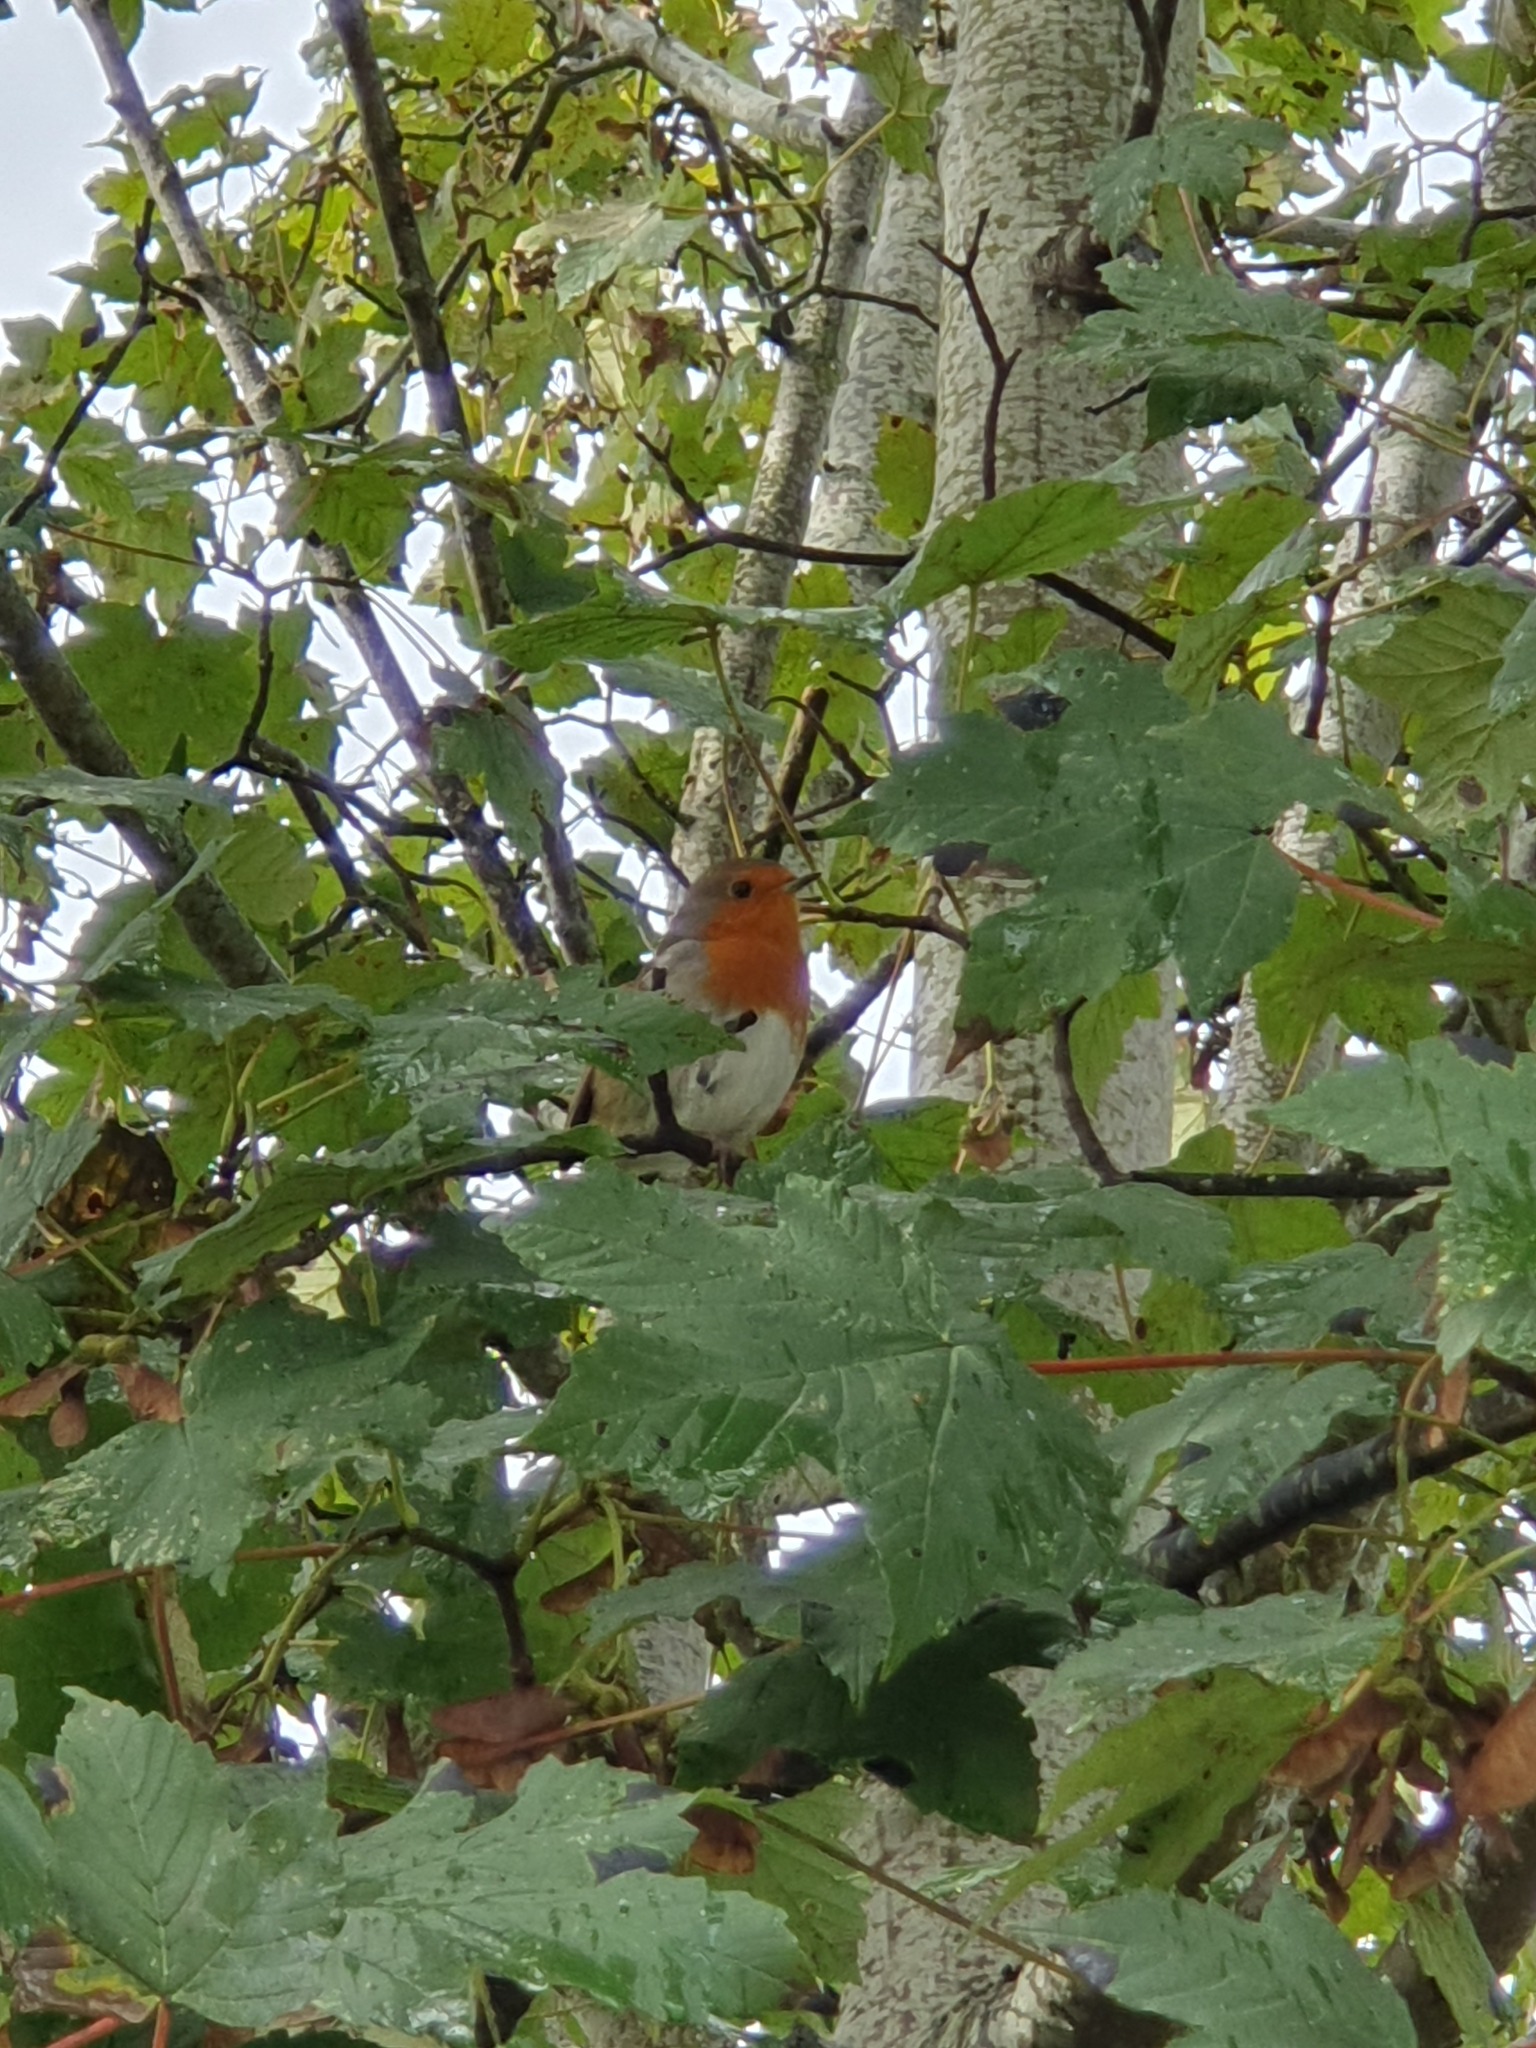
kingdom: Animalia
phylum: Chordata
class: Aves
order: Passeriformes
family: Muscicapidae
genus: Erithacus
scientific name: Erithacus rubecula
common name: European robin
